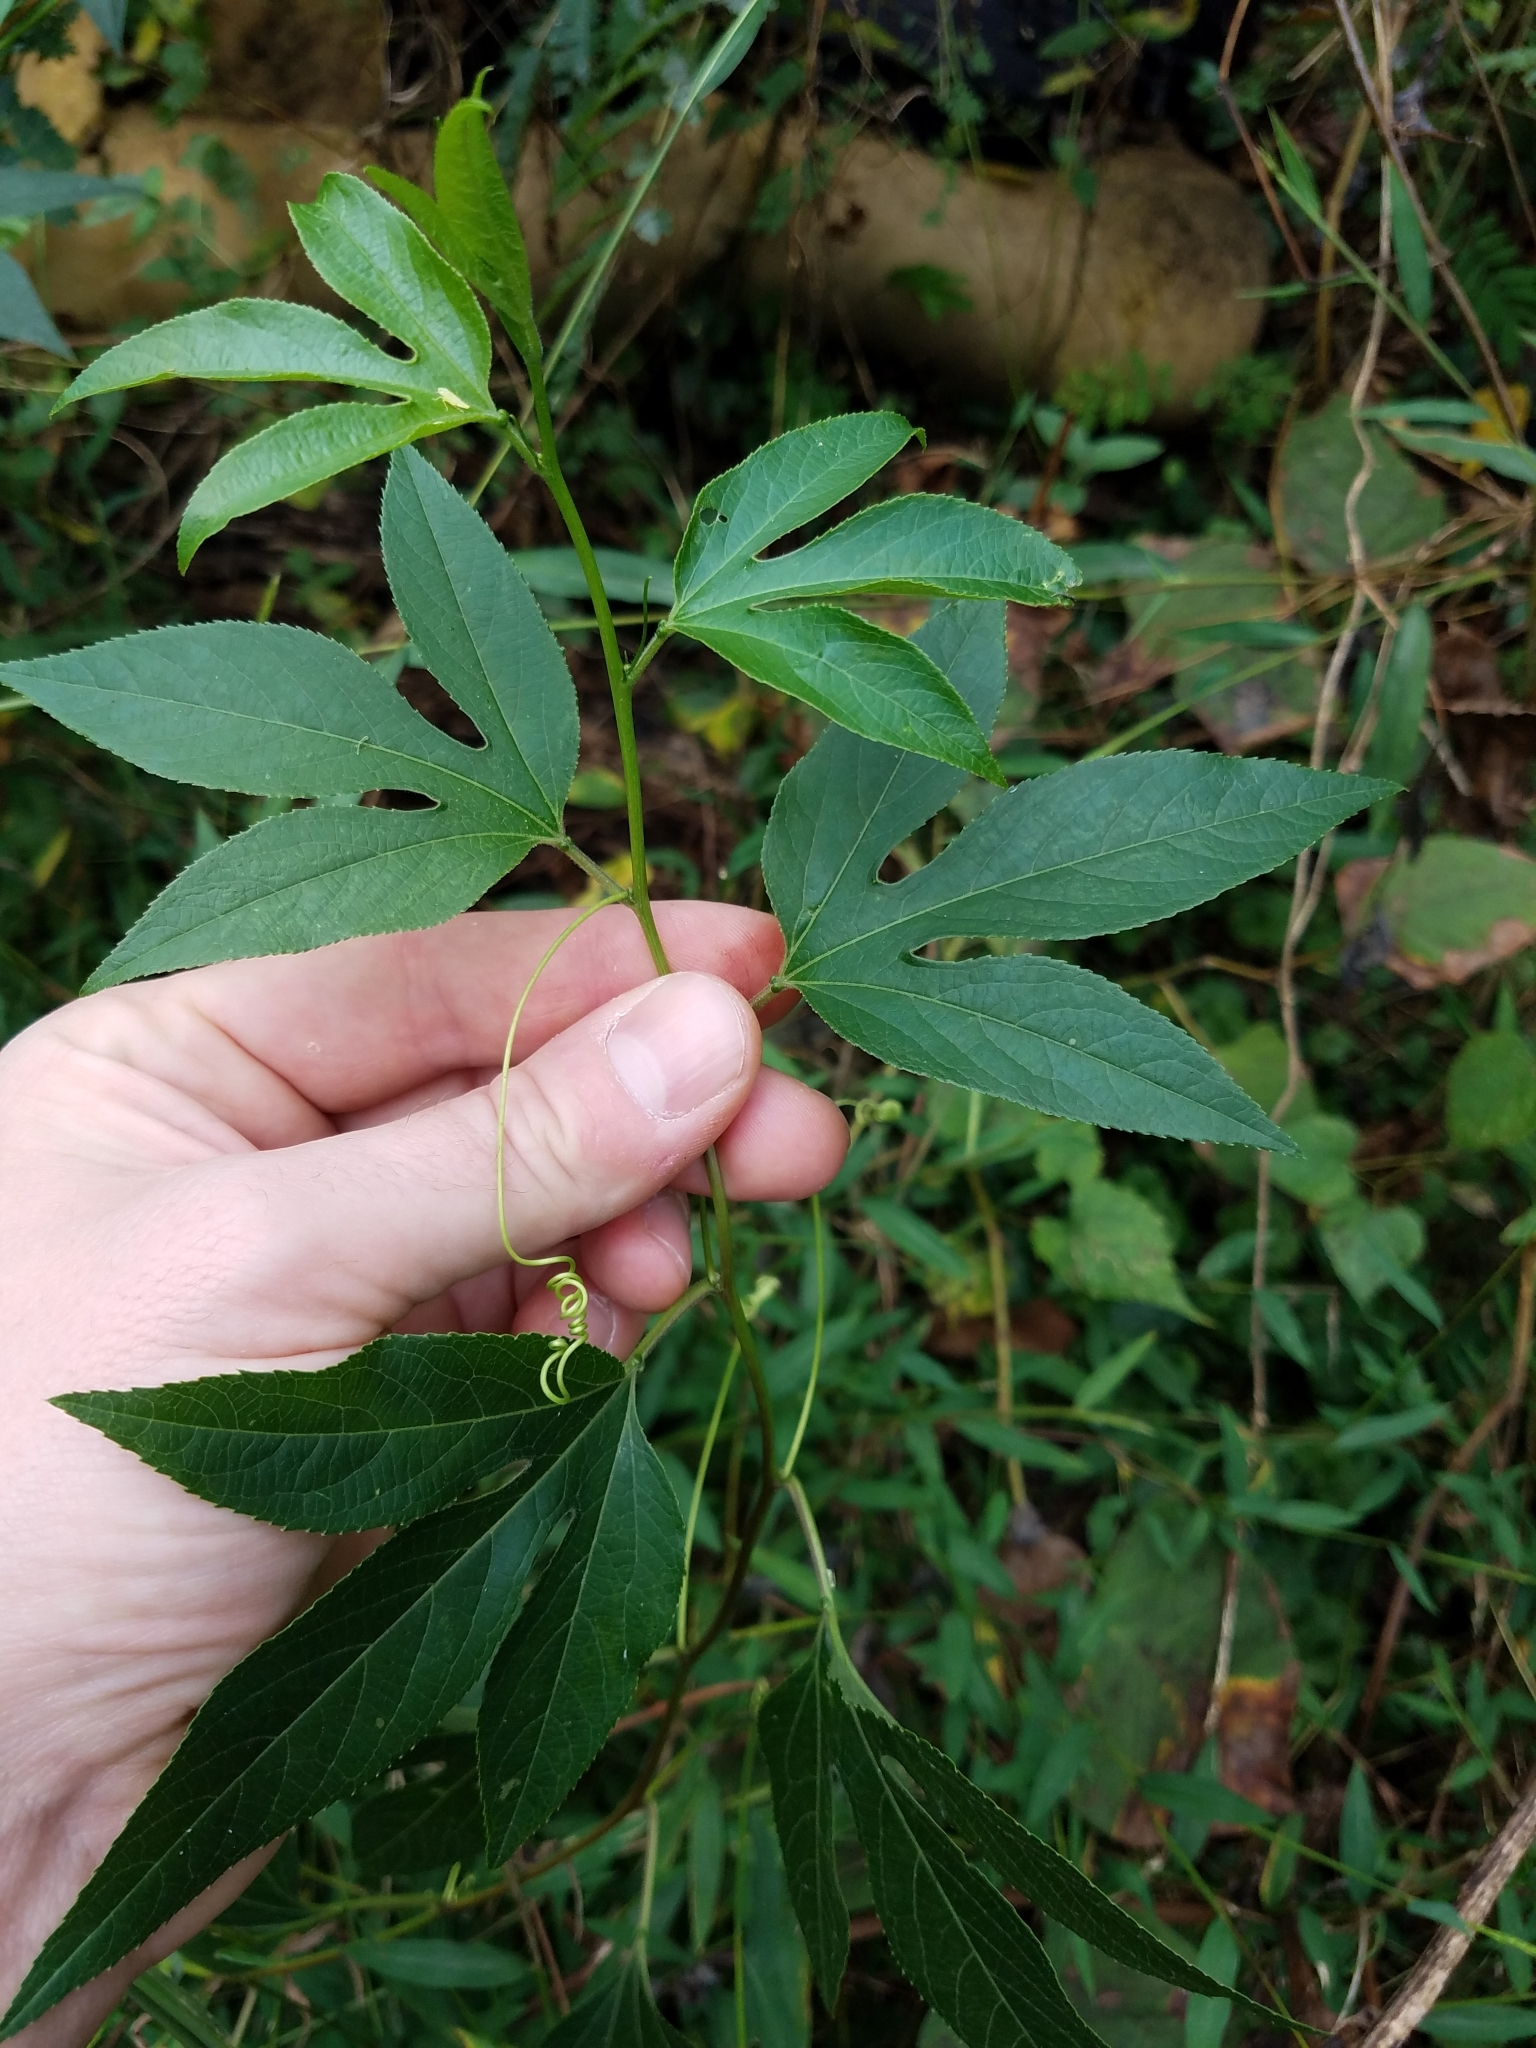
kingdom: Plantae
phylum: Tracheophyta
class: Magnoliopsida
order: Malpighiales
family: Passifloraceae
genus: Passiflora
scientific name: Passiflora incarnata
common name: Apricot-vine
